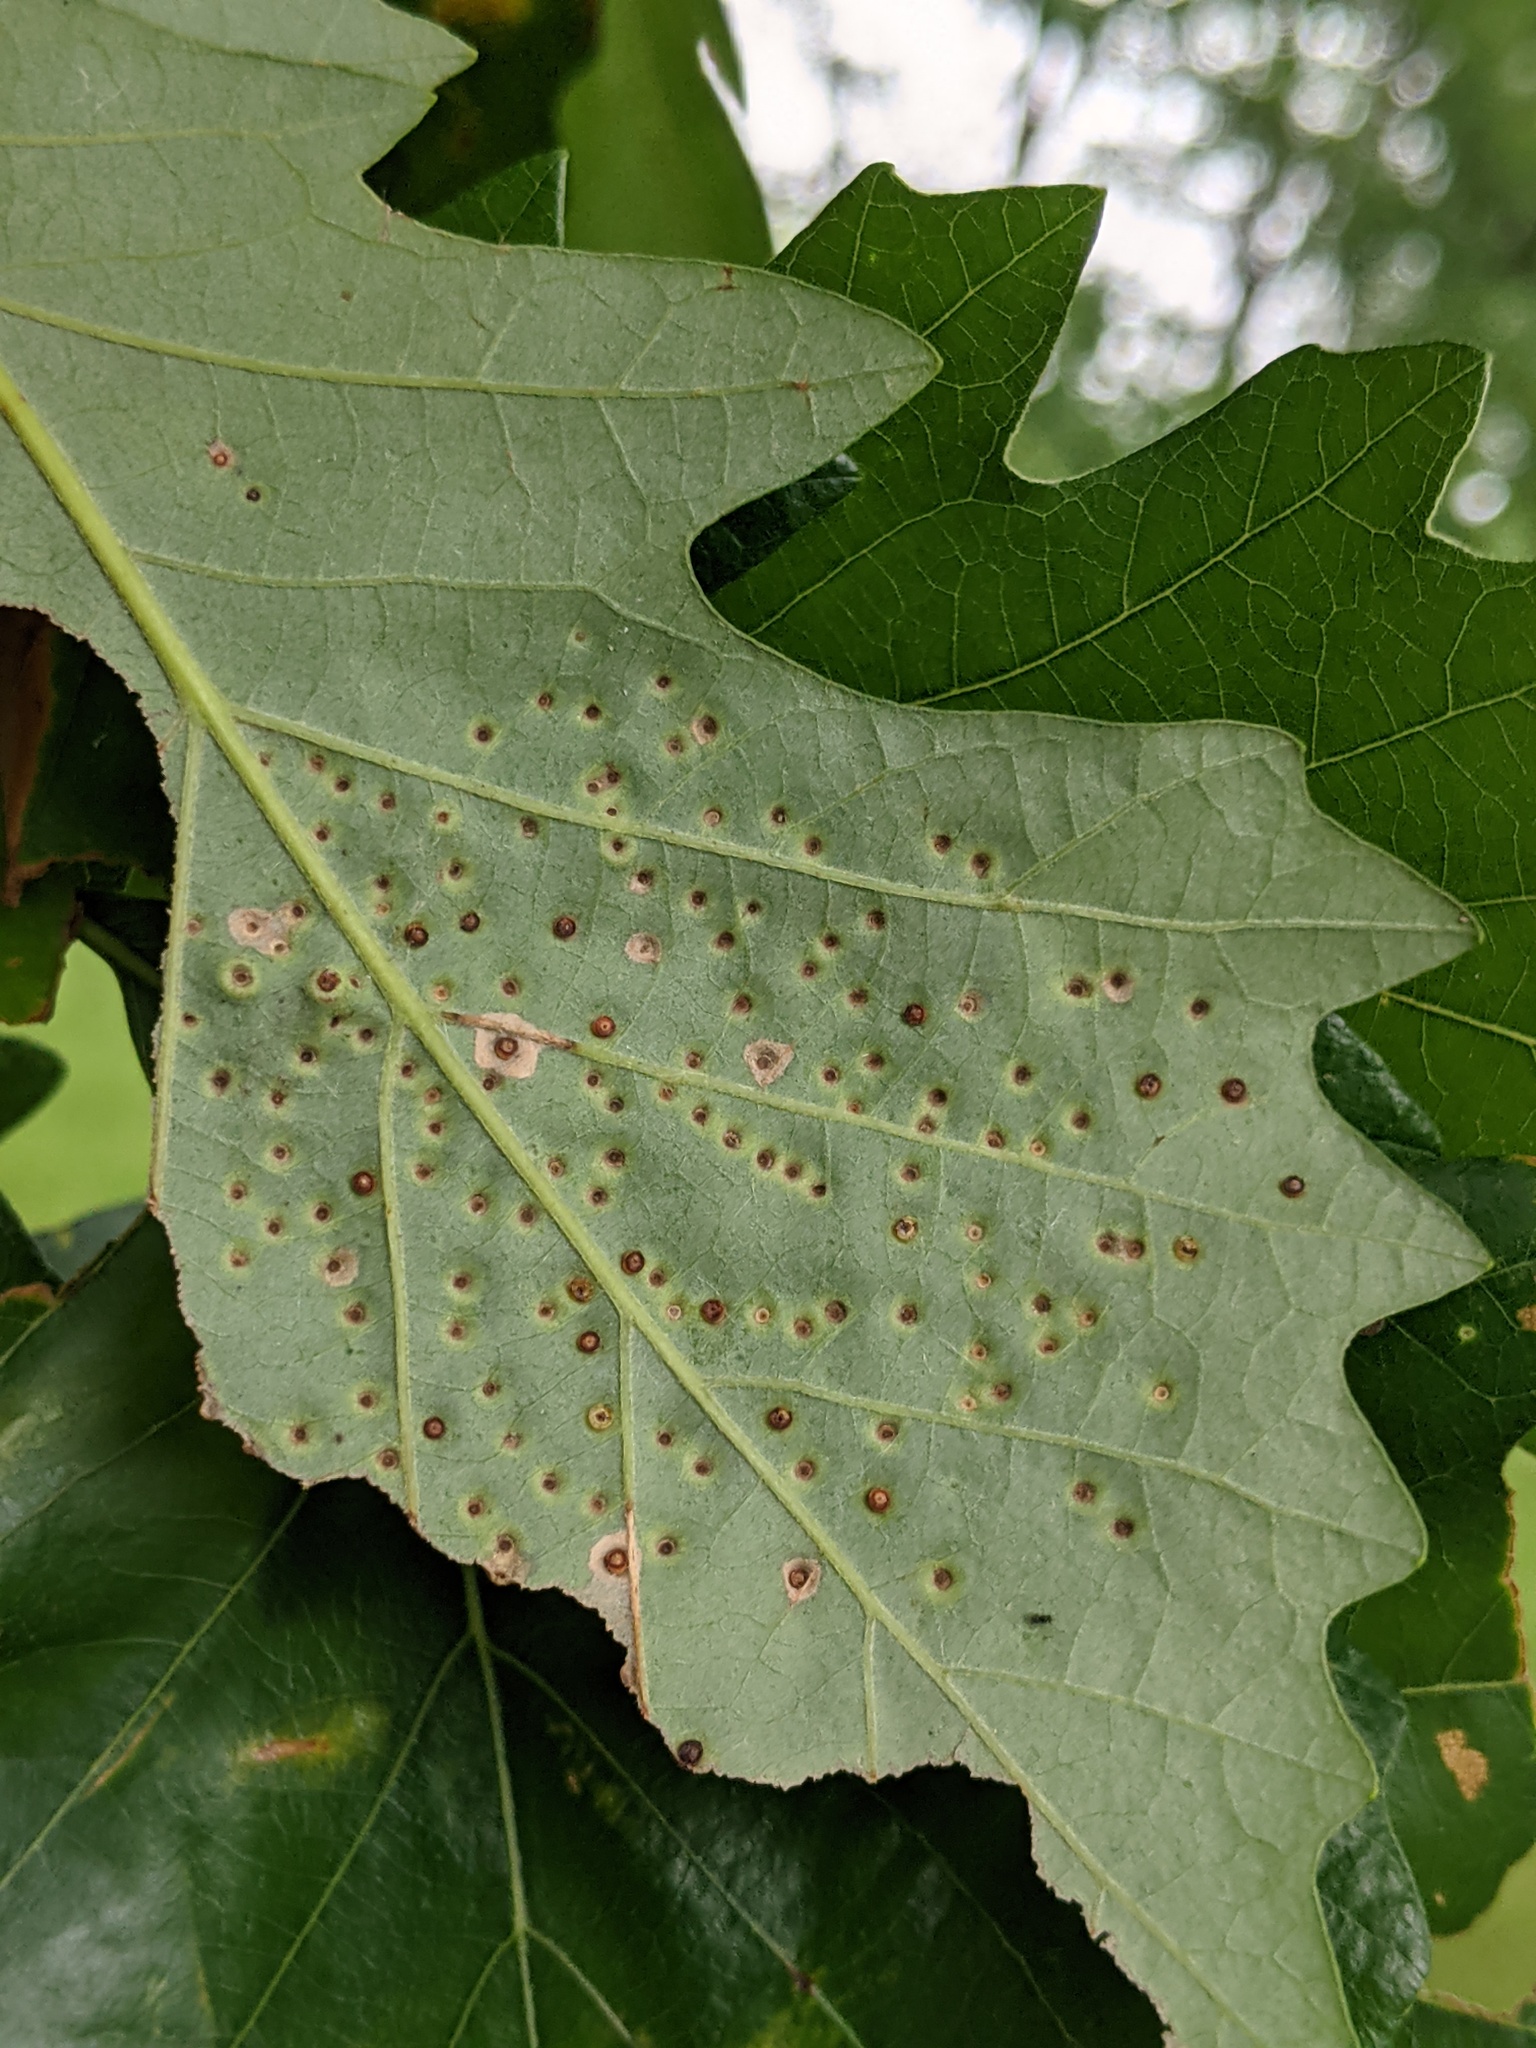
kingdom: Animalia
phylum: Arthropoda
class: Insecta
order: Hymenoptera
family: Cynipidae
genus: Neuroterus
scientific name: Neuroterus saltarius
